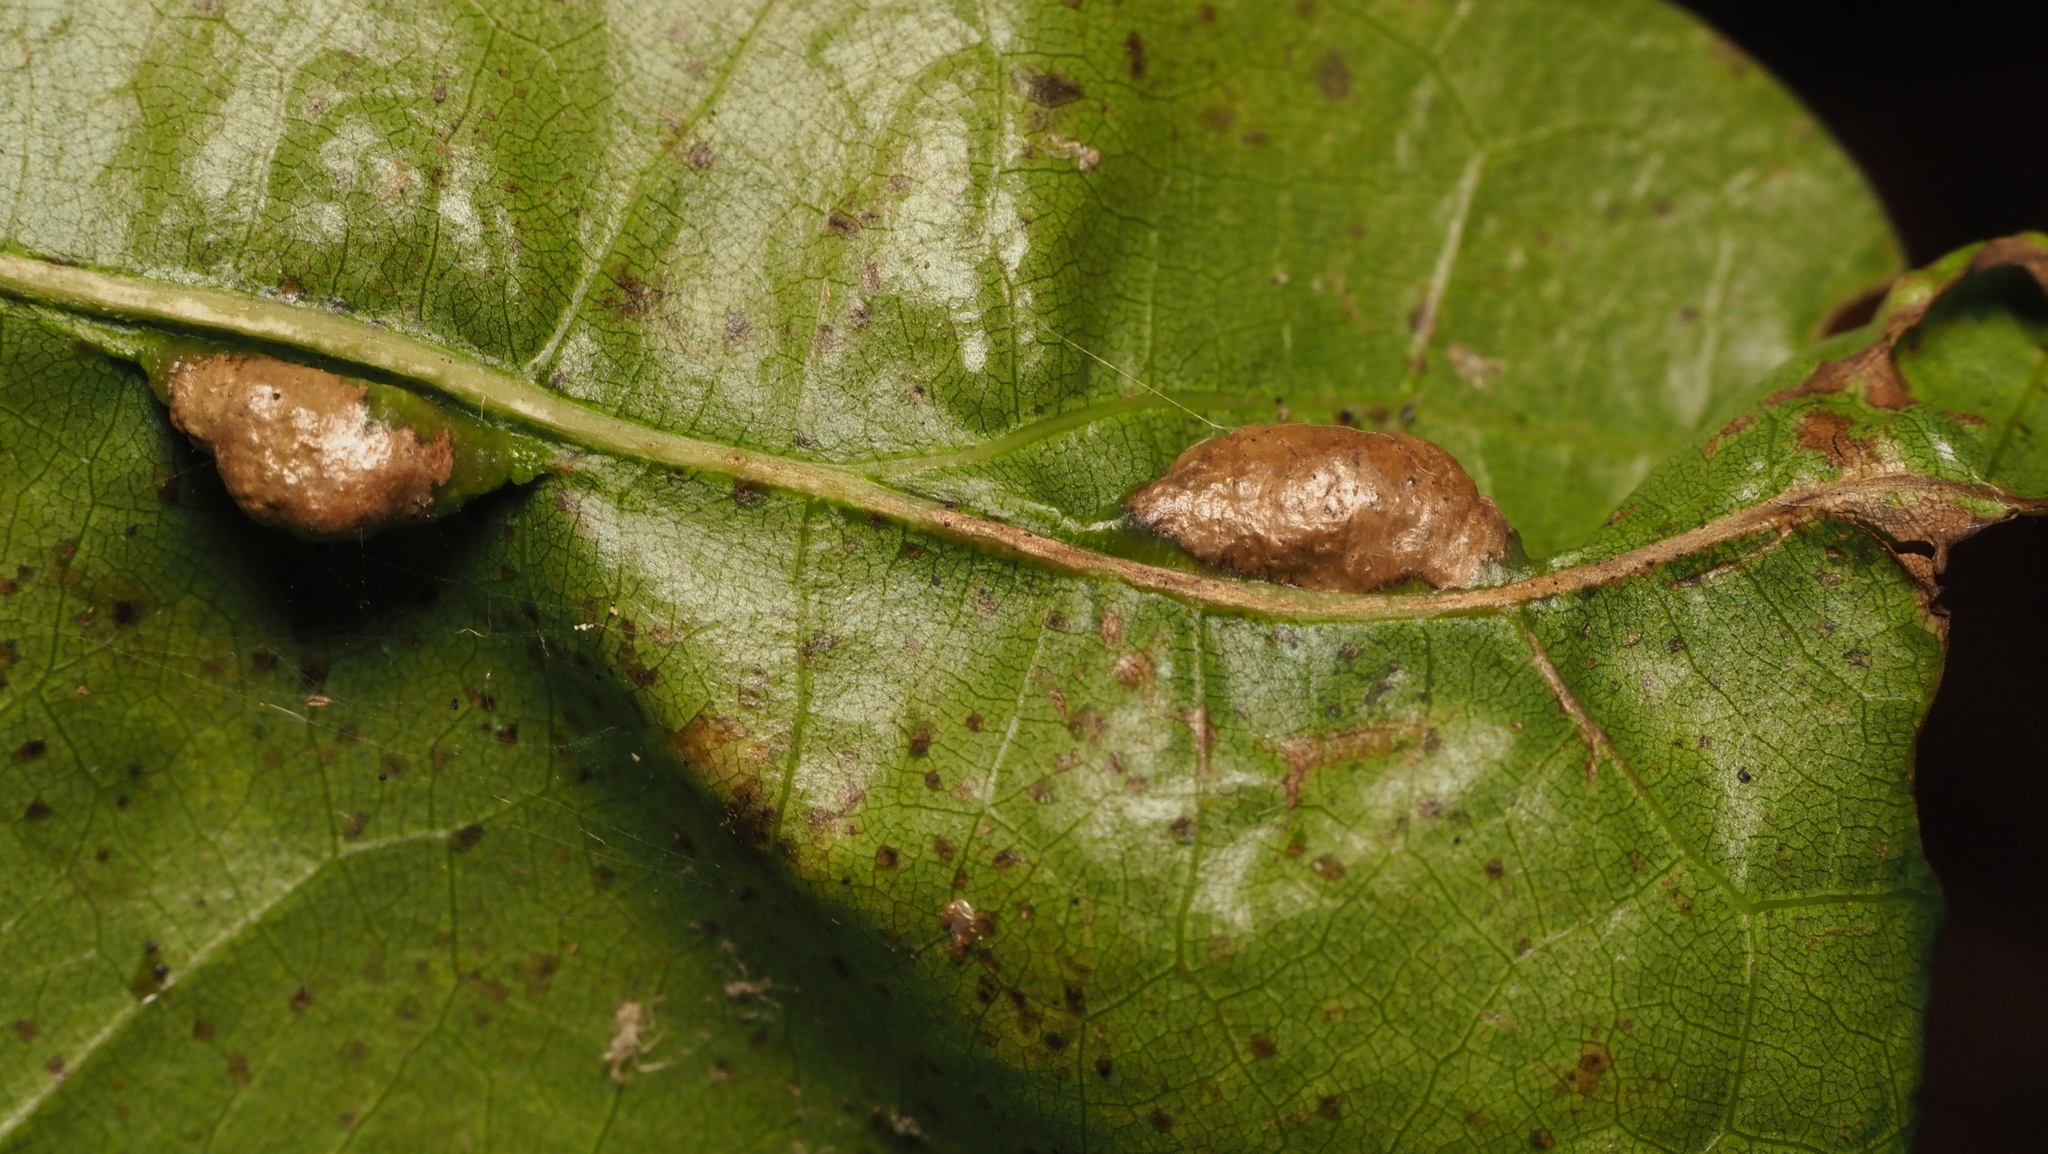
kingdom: Animalia
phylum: Arthropoda
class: Insecta
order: Diptera
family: Cecidomyiidae
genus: Macrodiplosis
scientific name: Macrodiplosis majalis
